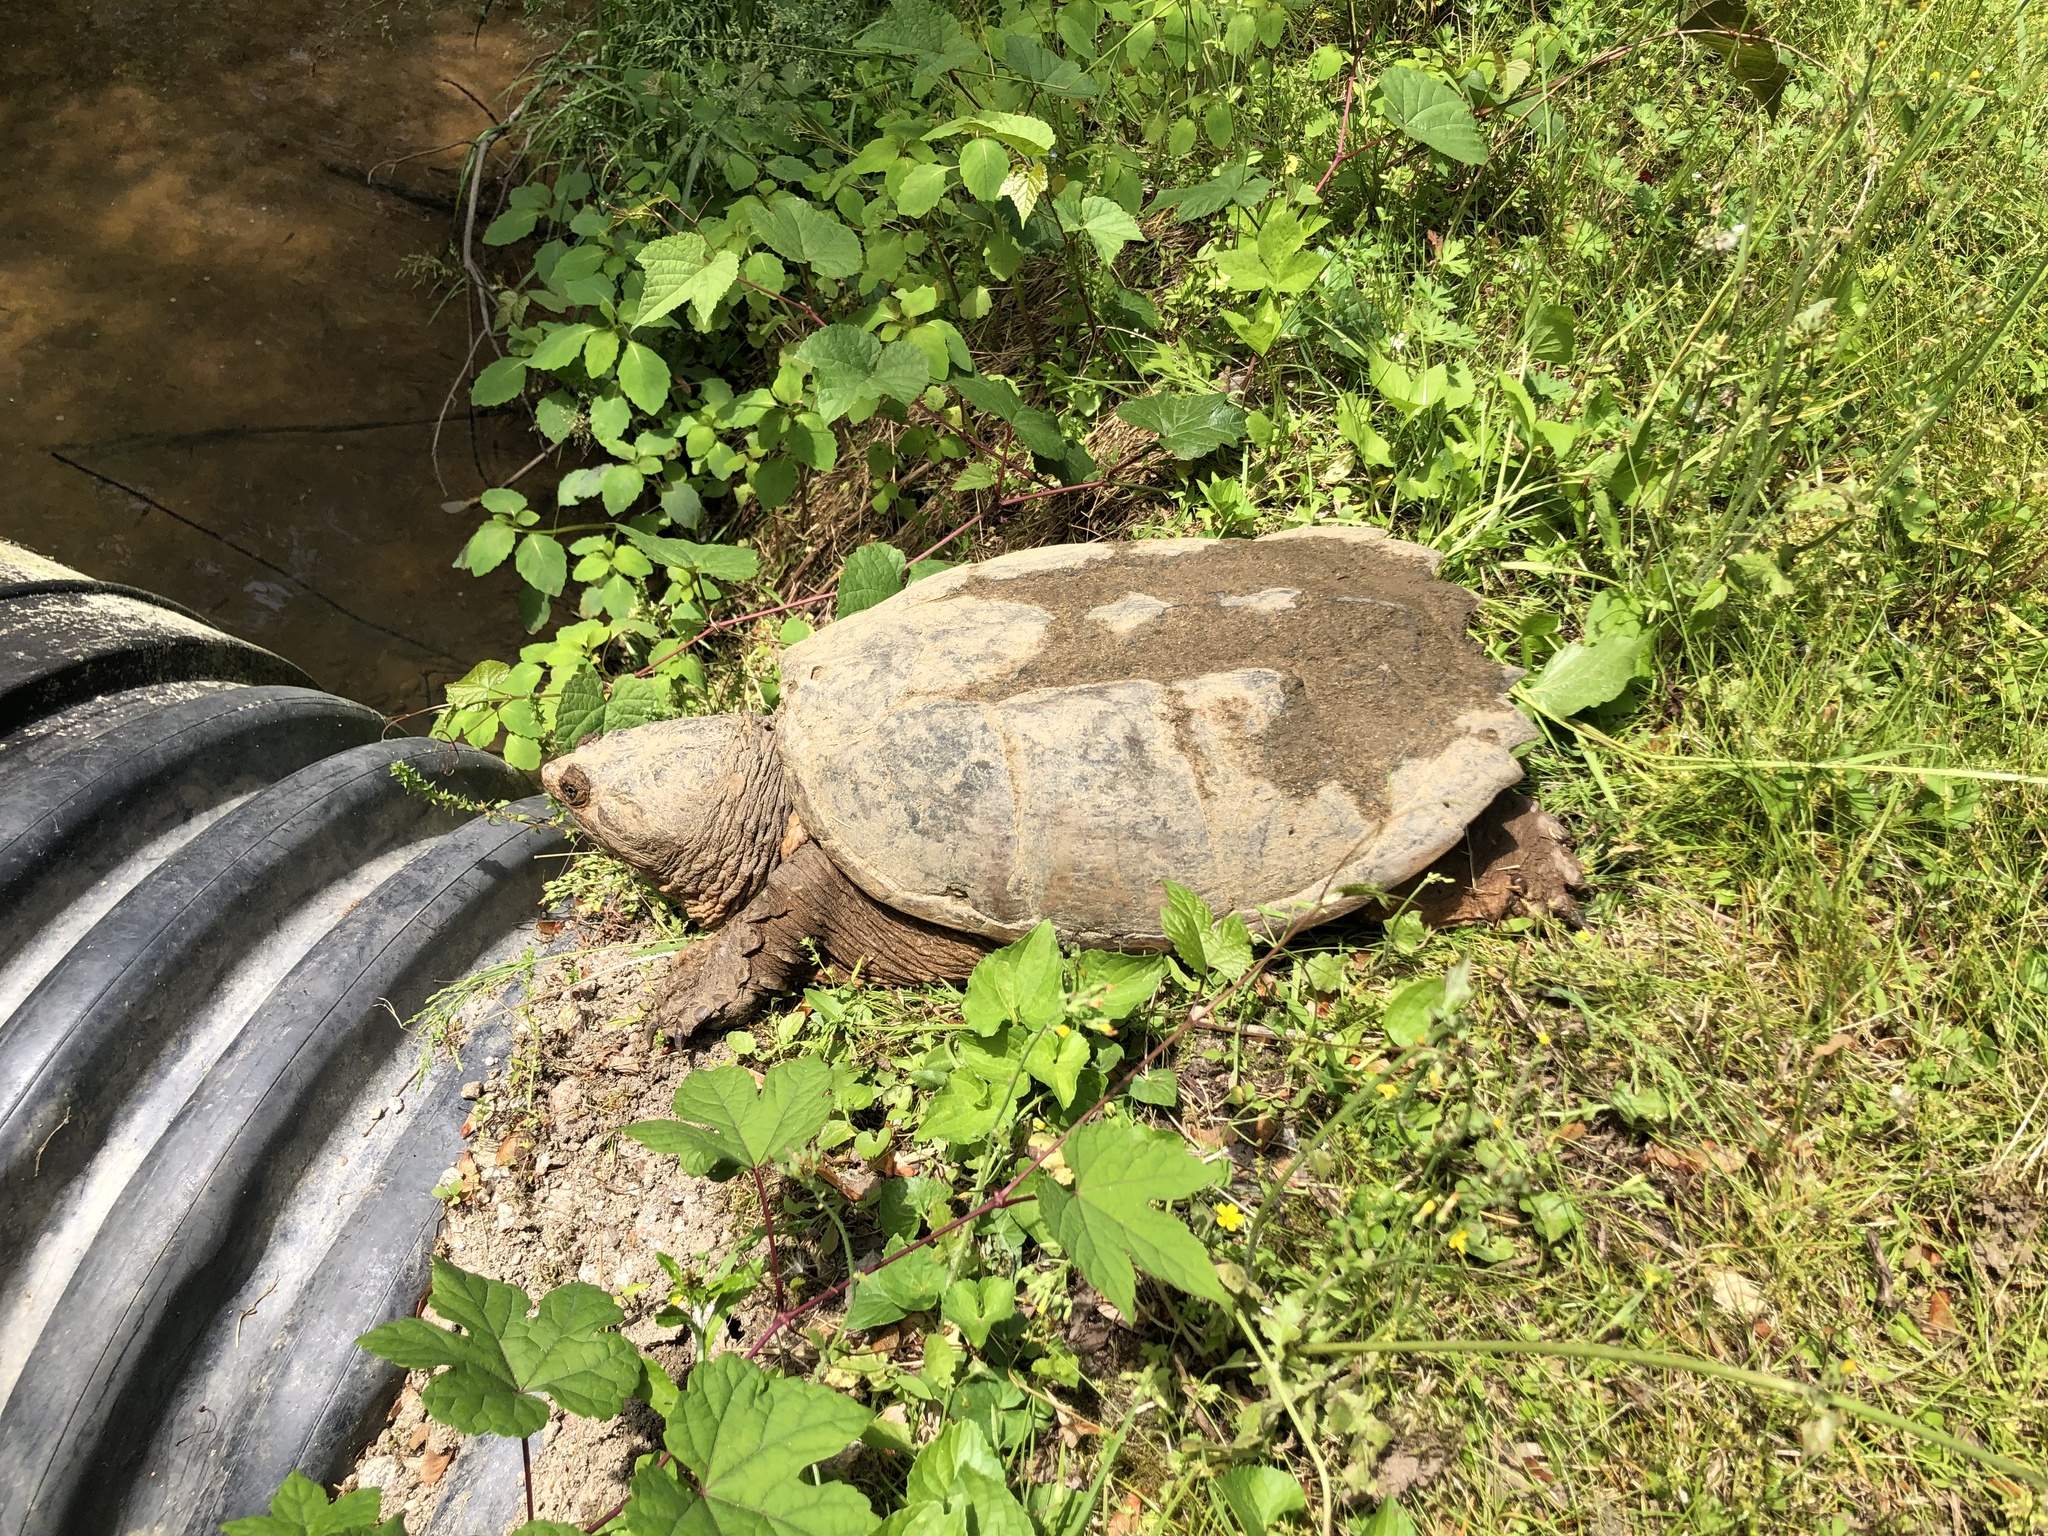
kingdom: Animalia
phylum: Chordata
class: Testudines
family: Chelydridae
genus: Chelydra
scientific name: Chelydra serpentina
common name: Common snapping turtle
